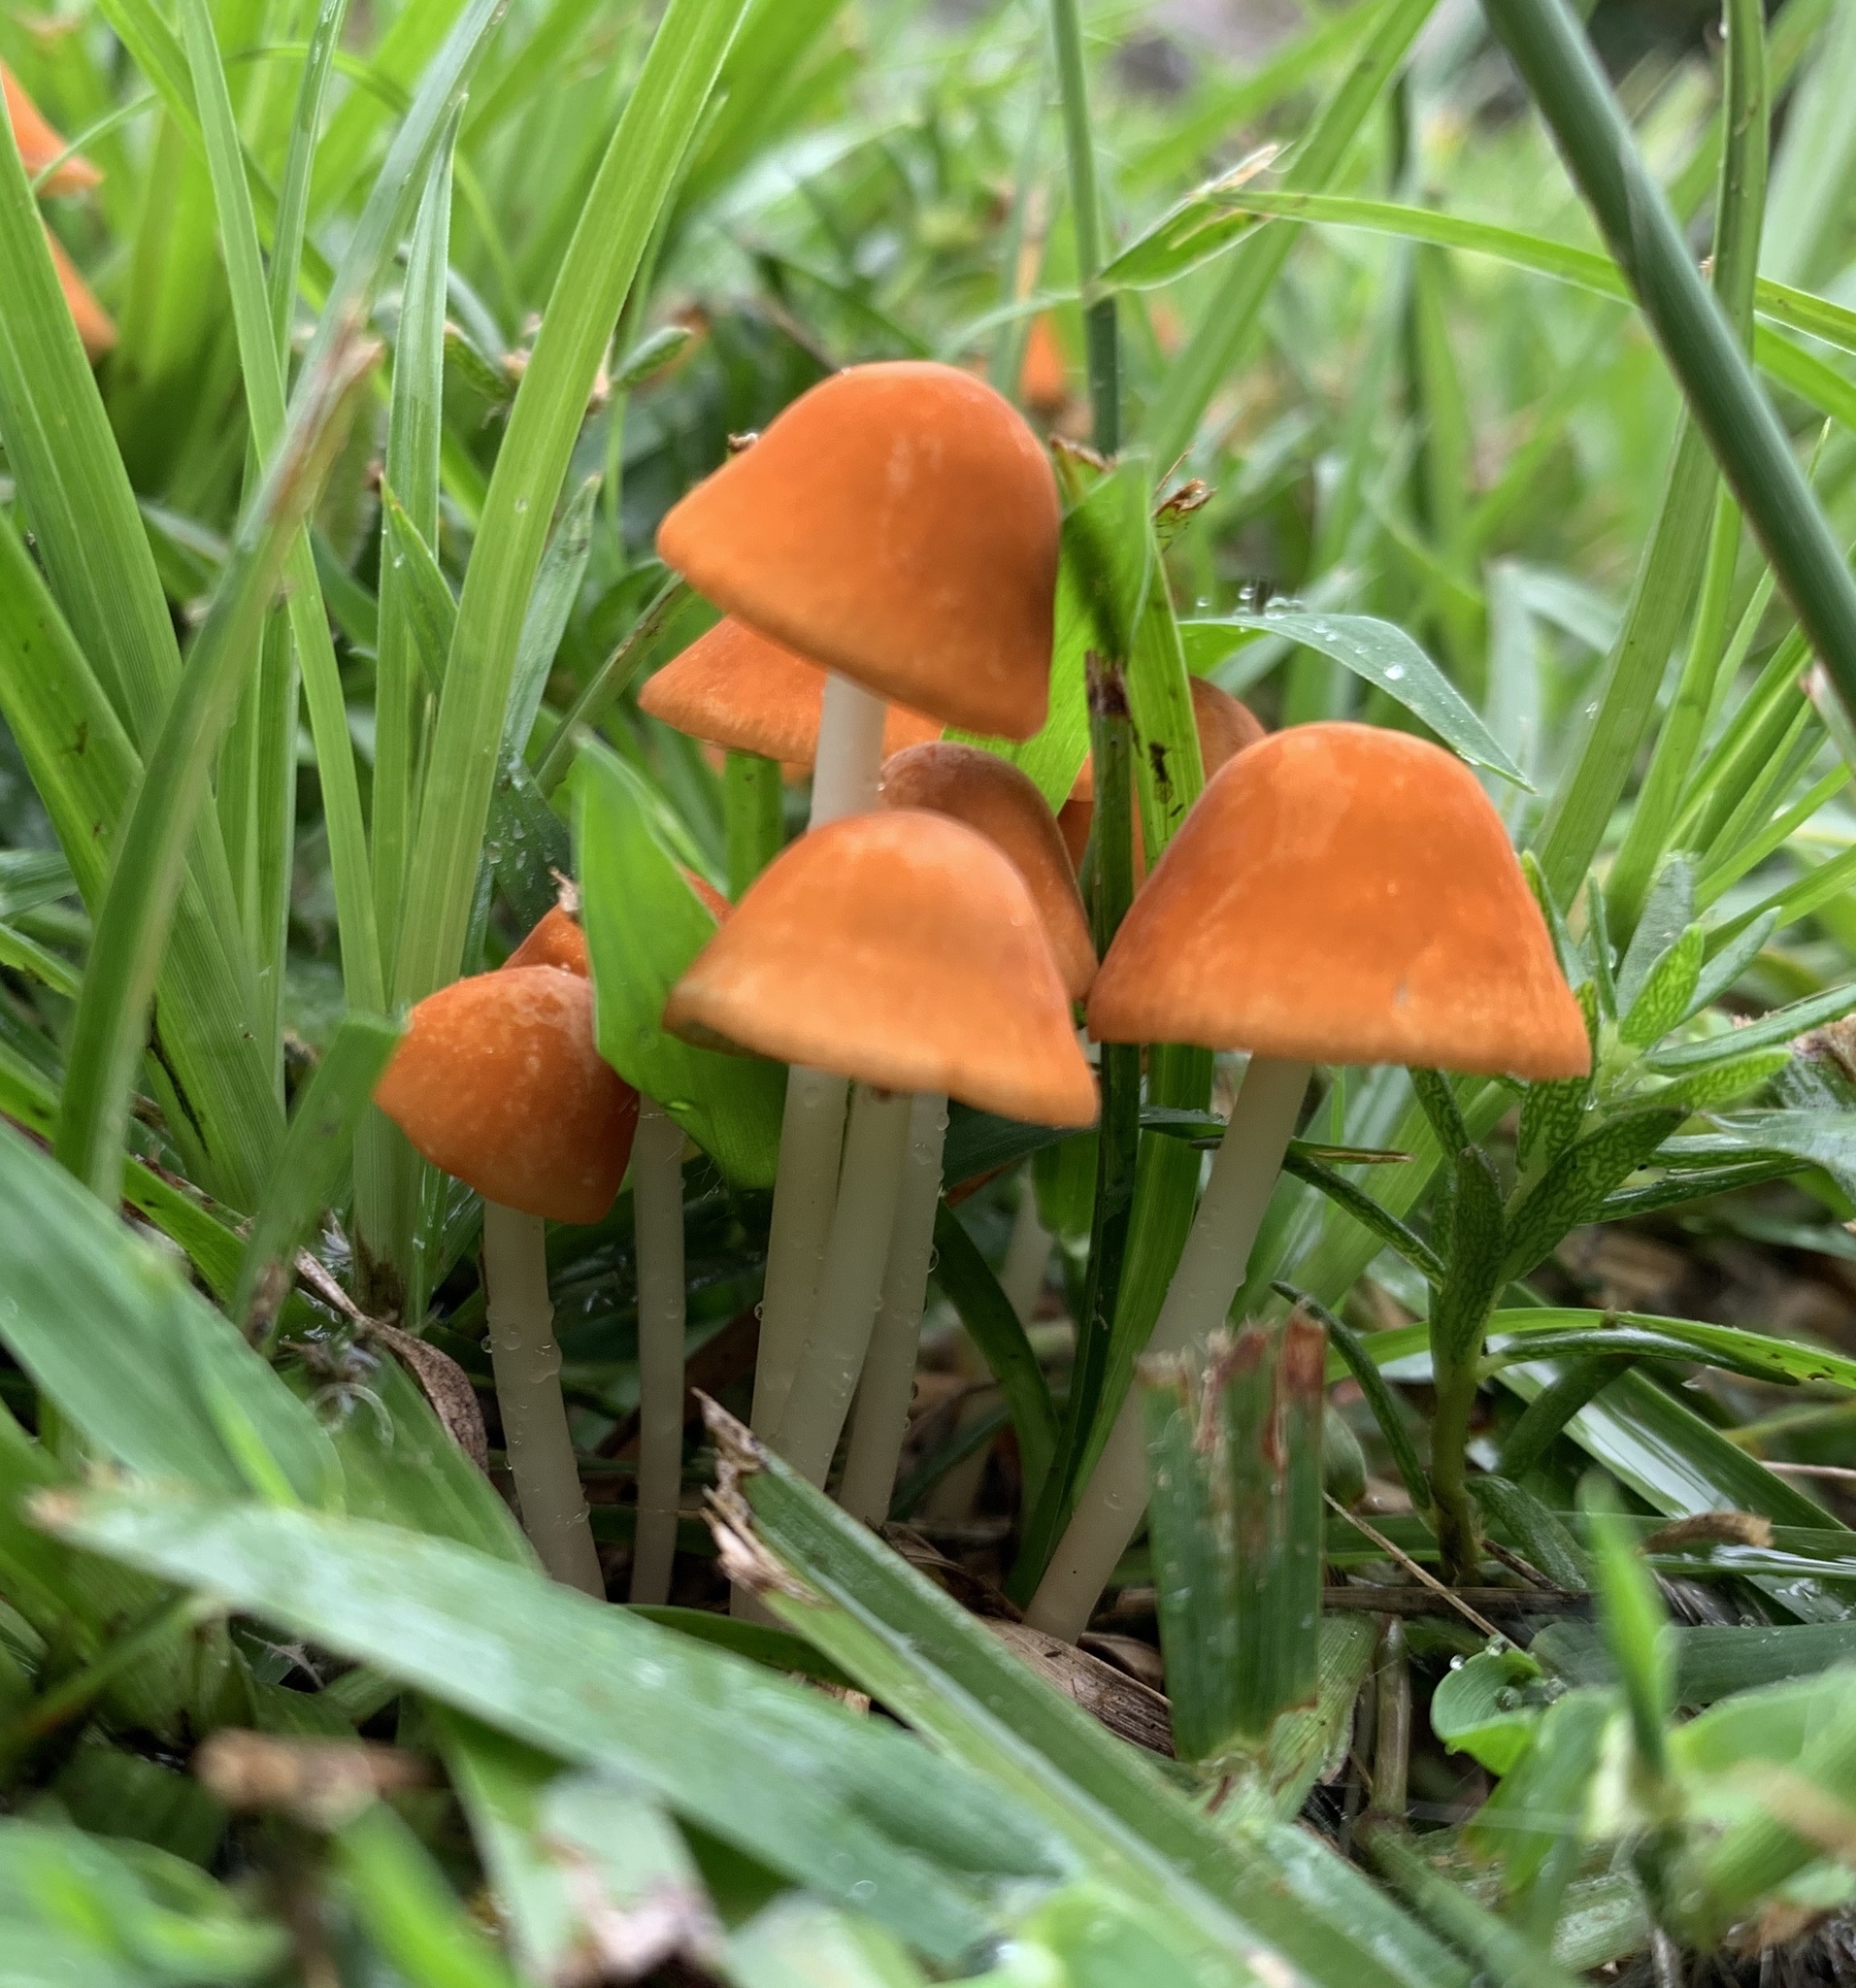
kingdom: Fungi
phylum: Basidiomycota
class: Agaricomycetes
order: Agaricales
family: Marasmiaceae
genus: Marasmius
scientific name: Marasmius vagus
